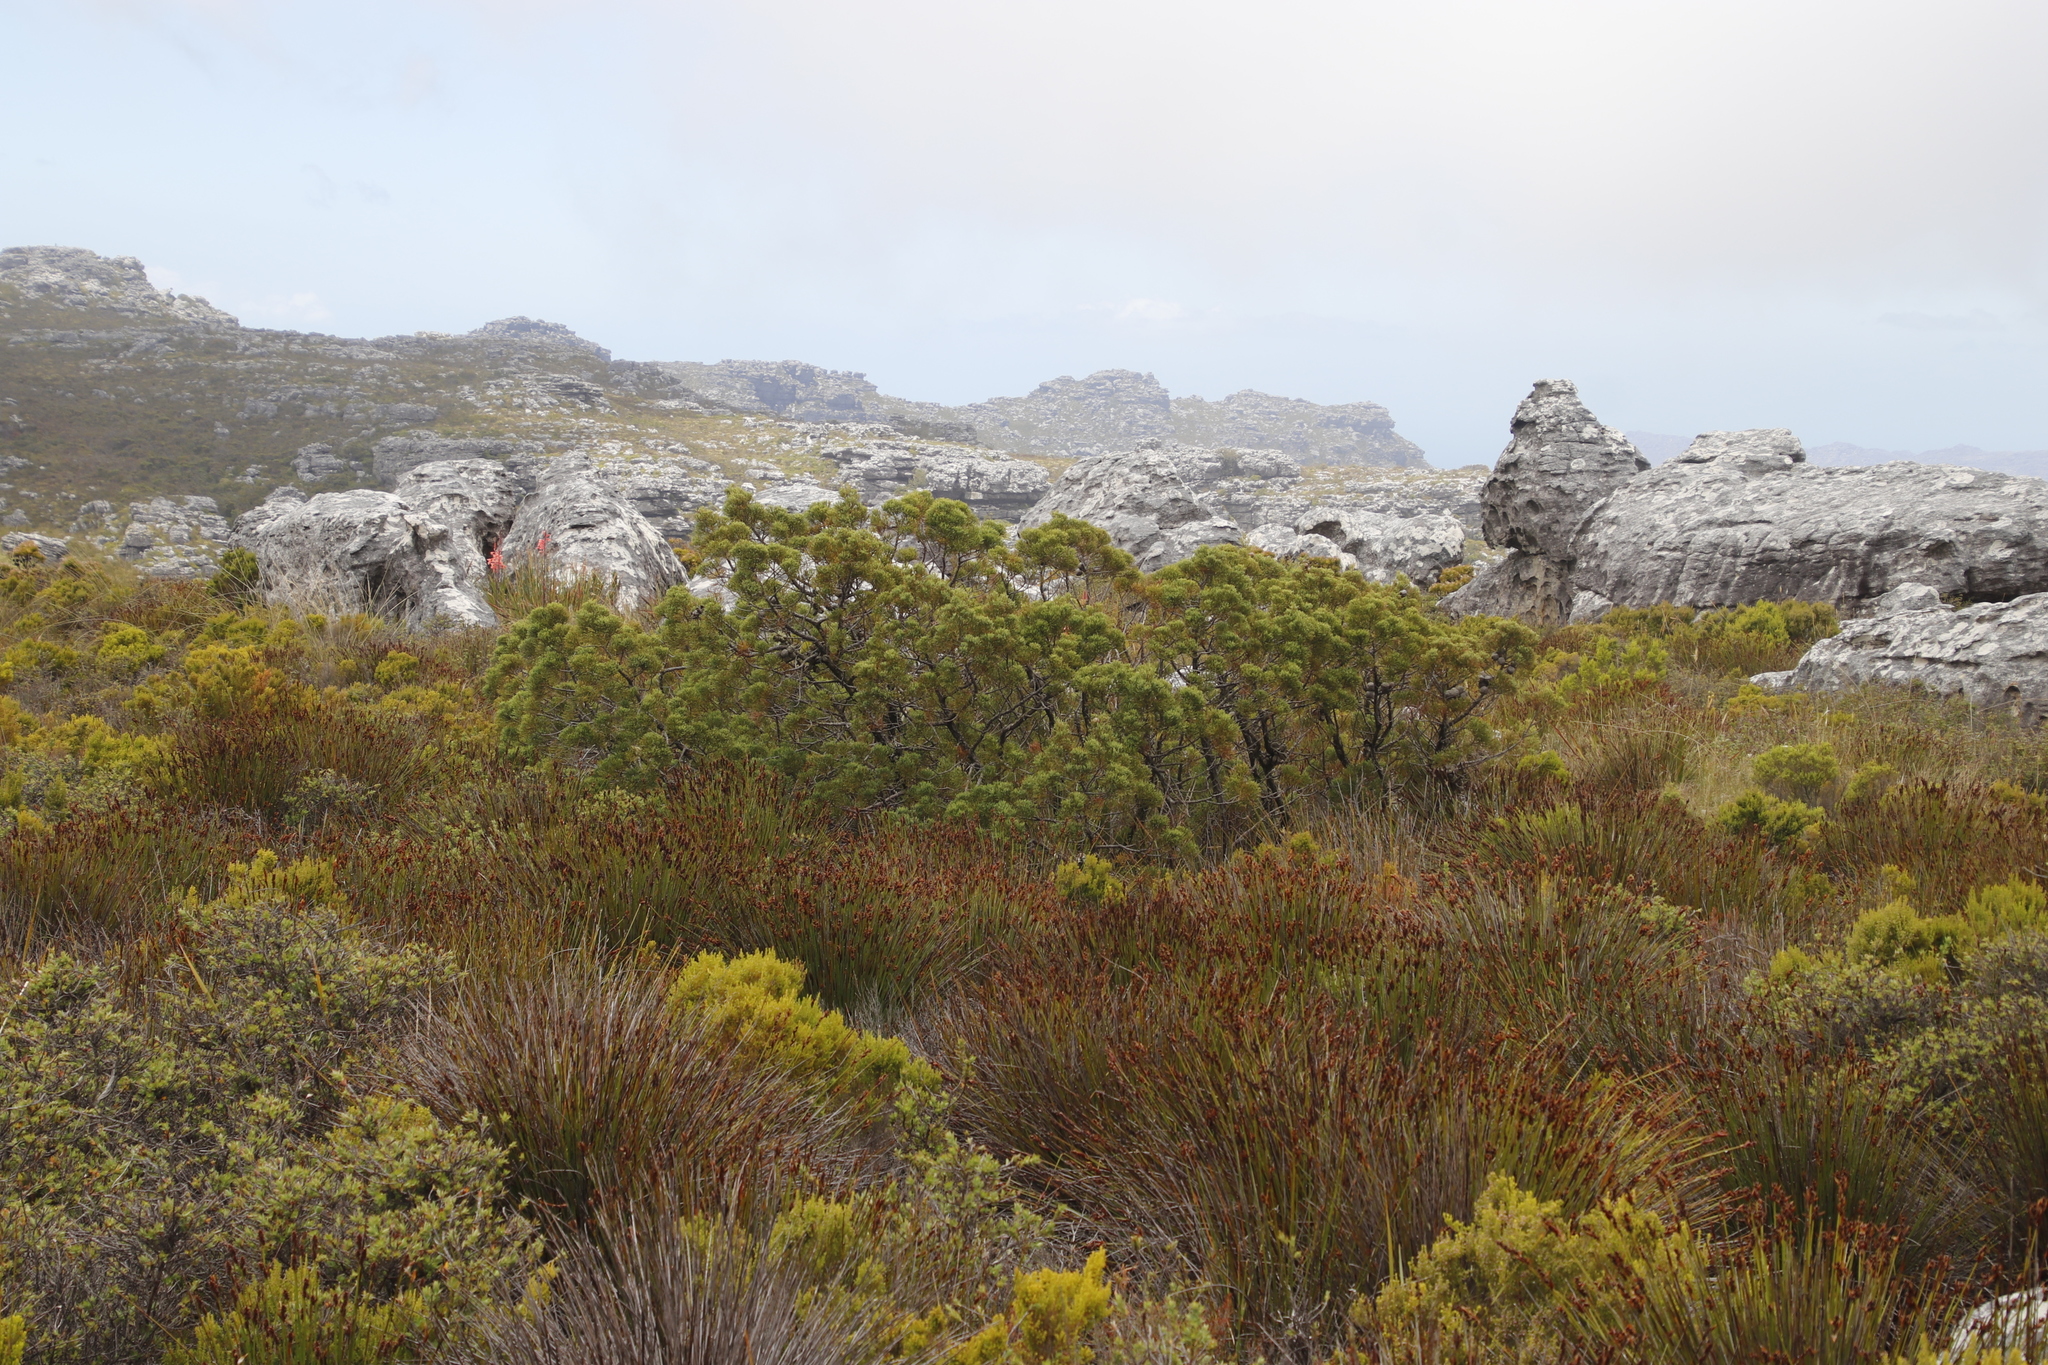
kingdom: Plantae
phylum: Tracheophyta
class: Pinopsida
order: Pinales
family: Cupressaceae
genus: Widdringtonia
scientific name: Widdringtonia nodiflora
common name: Cape cypress
